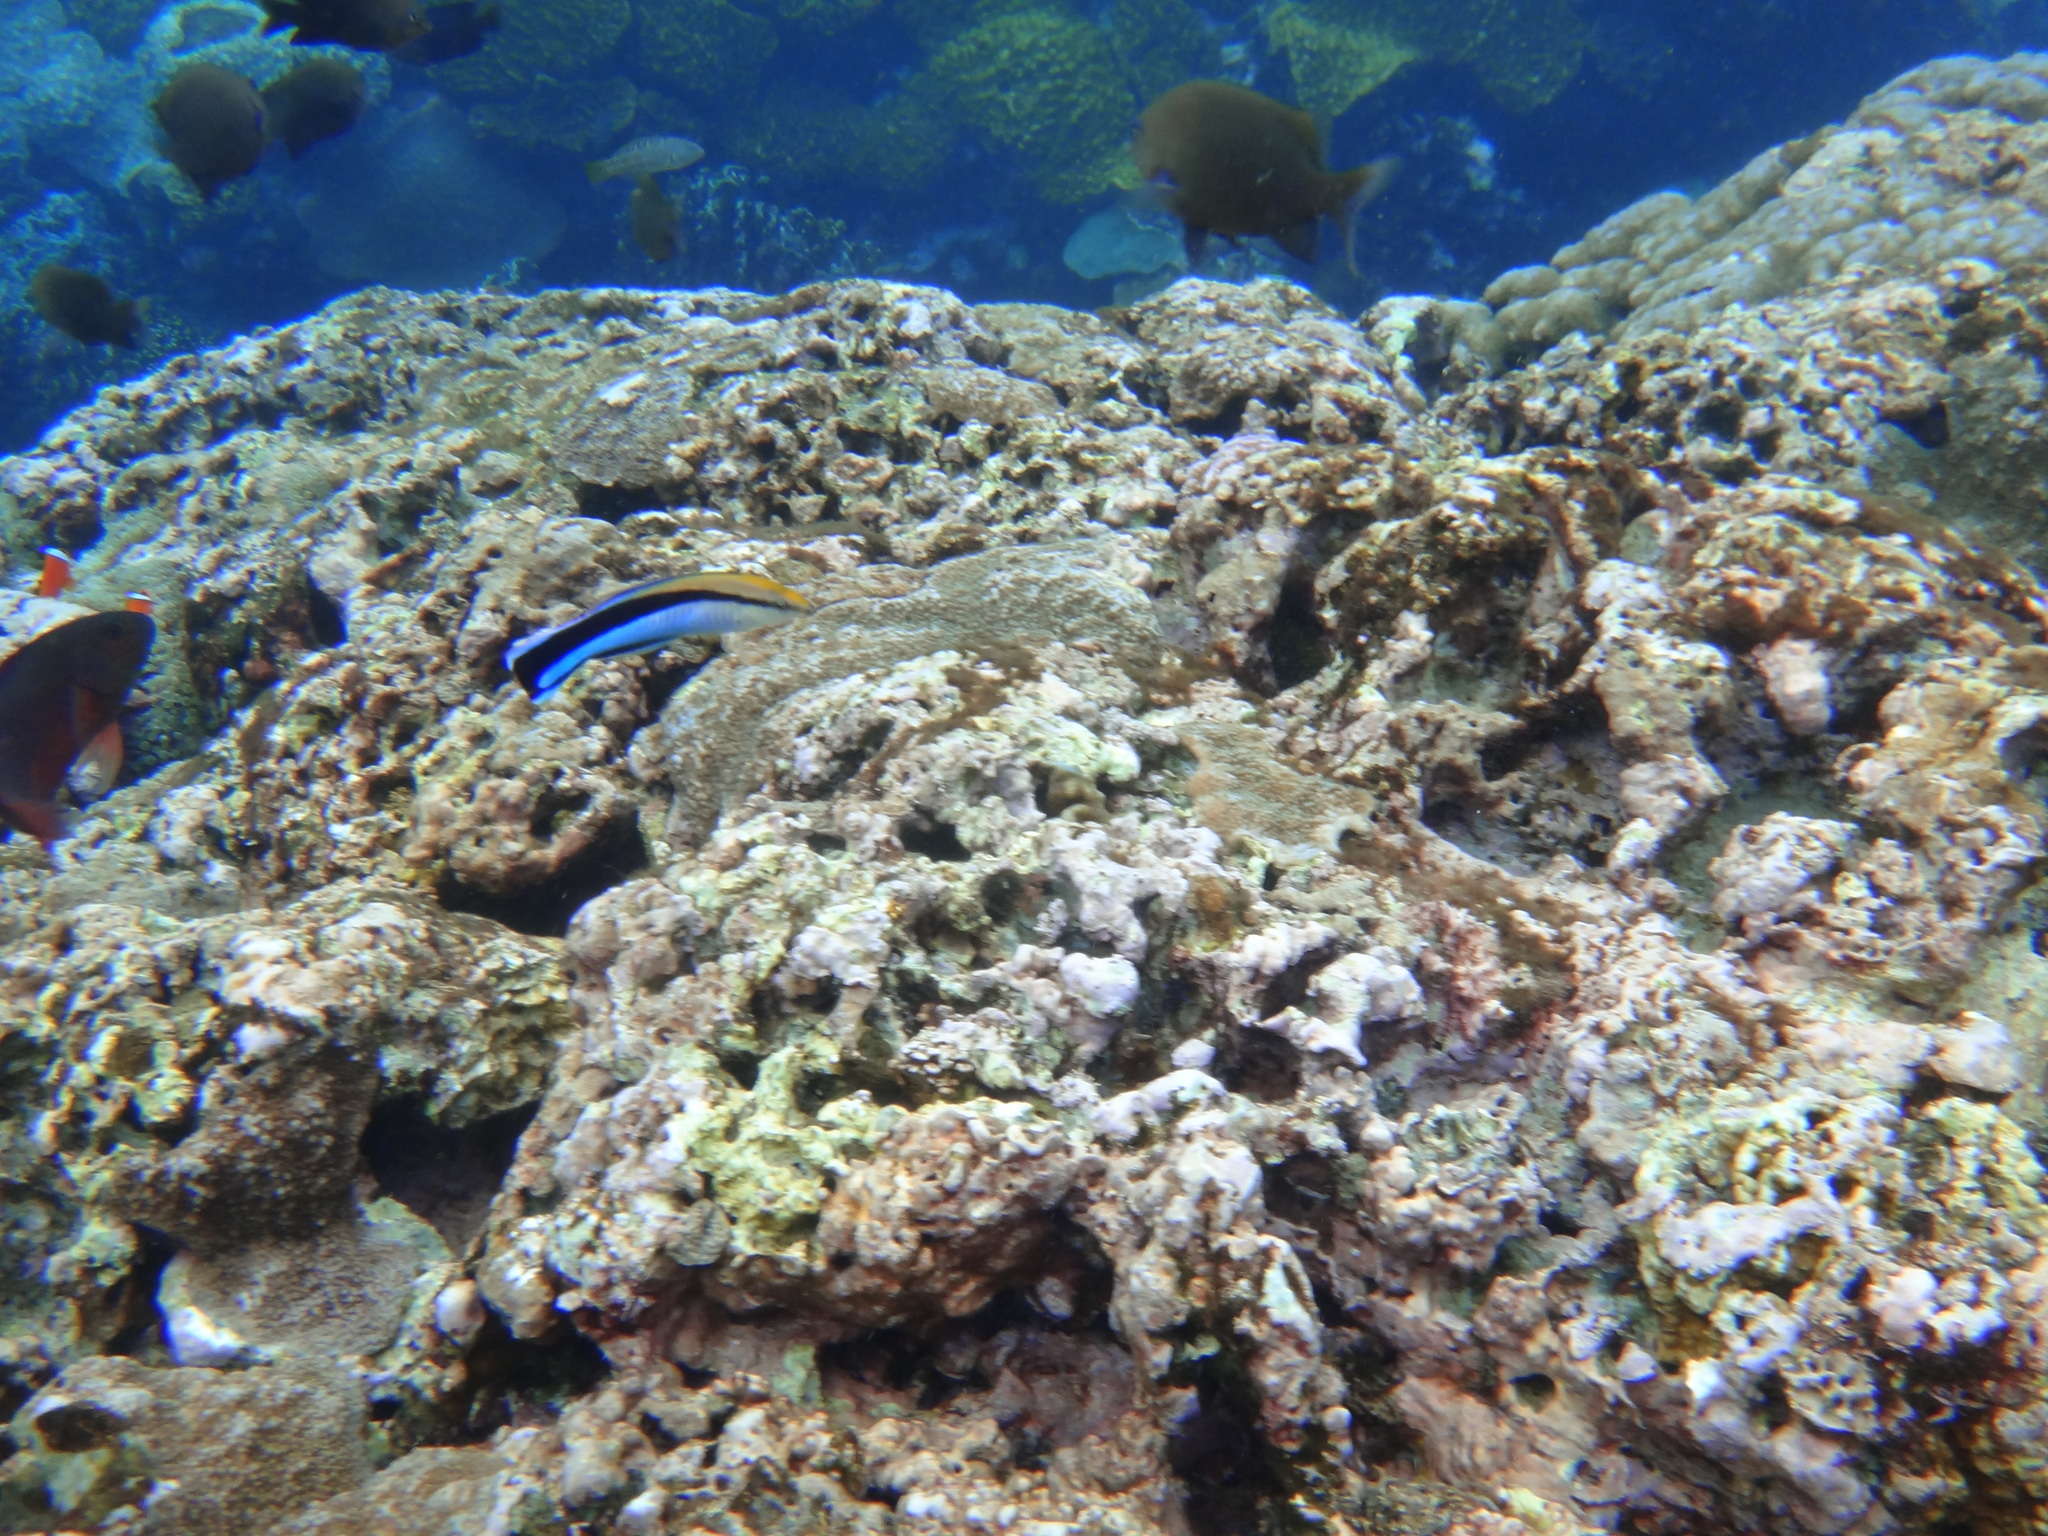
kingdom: Animalia
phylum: Chordata
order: Perciformes
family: Labridae
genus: Labroides
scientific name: Labroides dimidiatus
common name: Blue diesel wrasse
